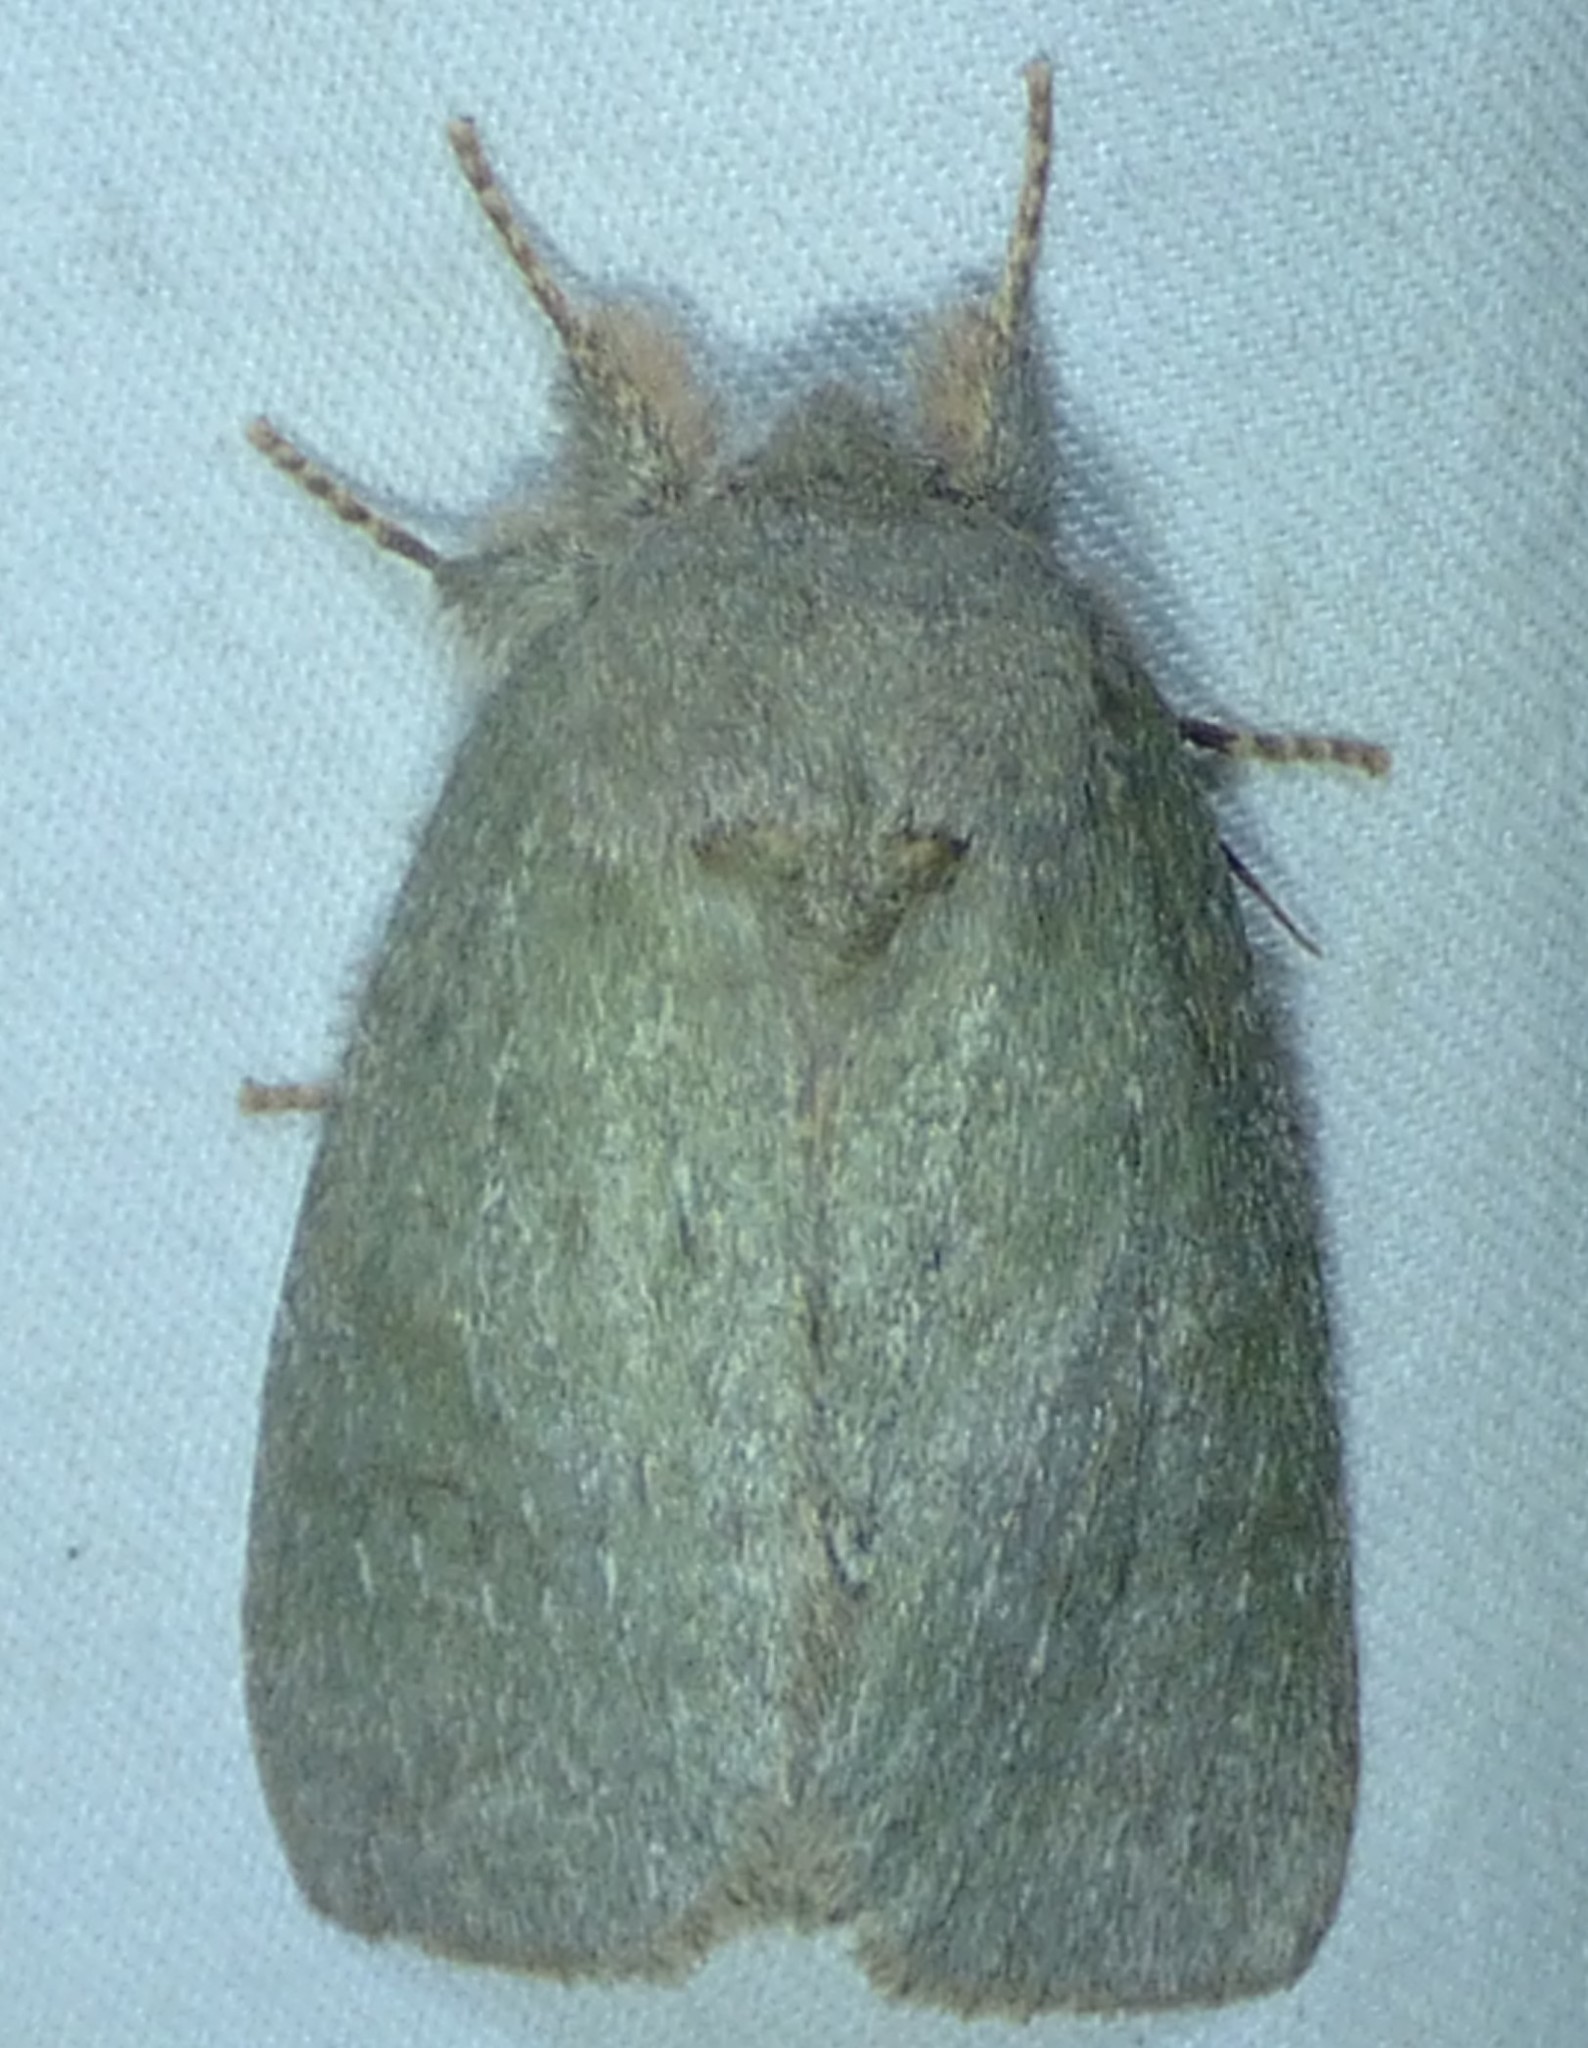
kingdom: Animalia
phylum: Arthropoda
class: Insecta
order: Lepidoptera
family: Notodontidae
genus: Misogada
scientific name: Misogada unicolor
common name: Drab prominent
